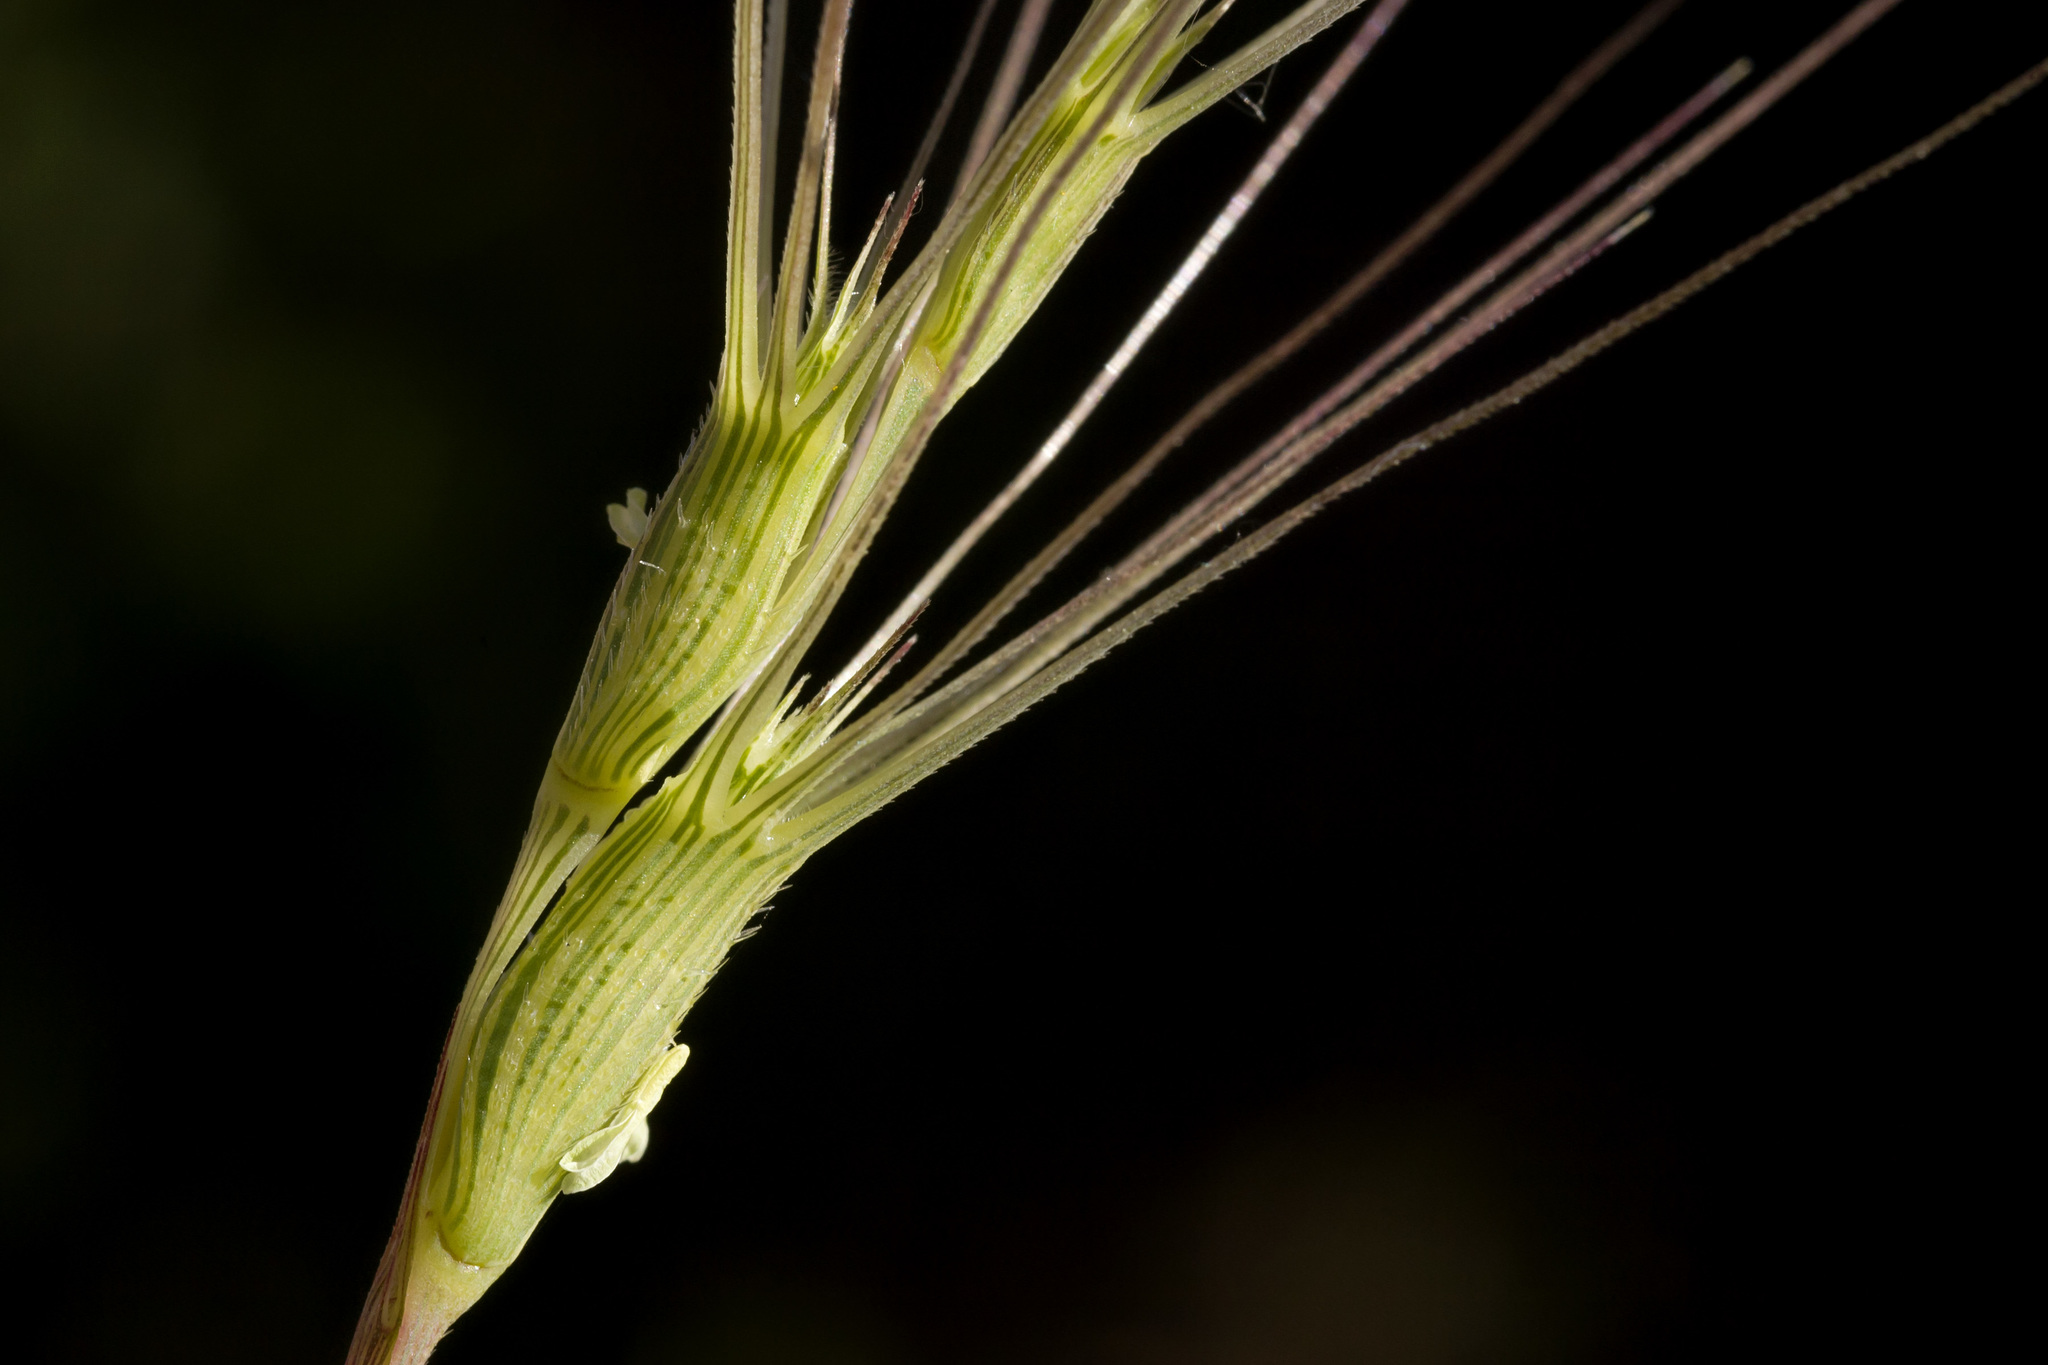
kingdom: Plantae
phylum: Tracheophyta
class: Liliopsida
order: Poales
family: Poaceae
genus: Aegilops
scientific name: Aegilops triuncialis
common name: Barb goat grass
